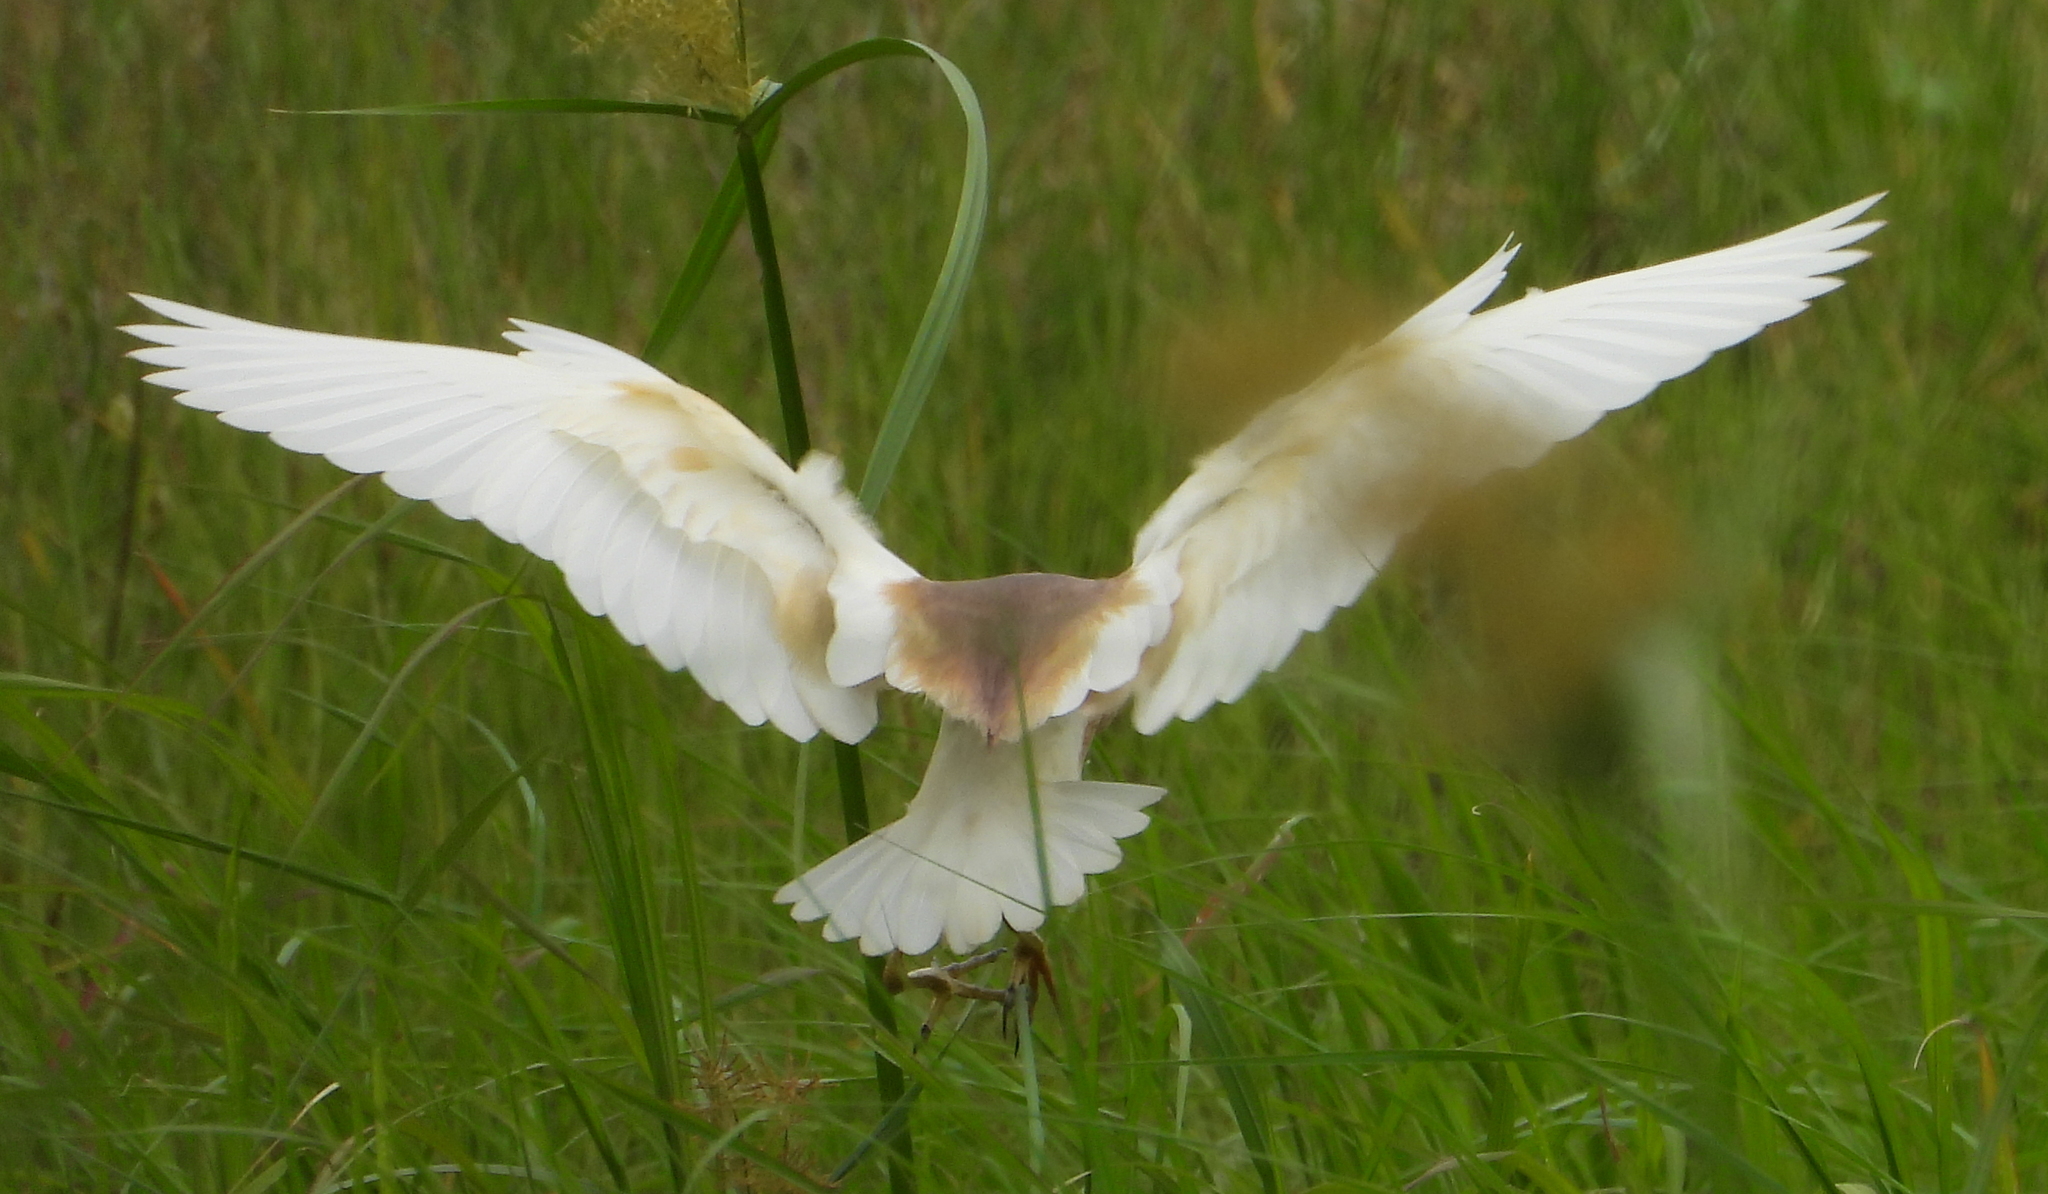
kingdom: Animalia
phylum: Chordata
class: Aves
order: Pelecaniformes
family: Ardeidae
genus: Ardeola
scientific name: Ardeola ralloides
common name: Squacco heron
